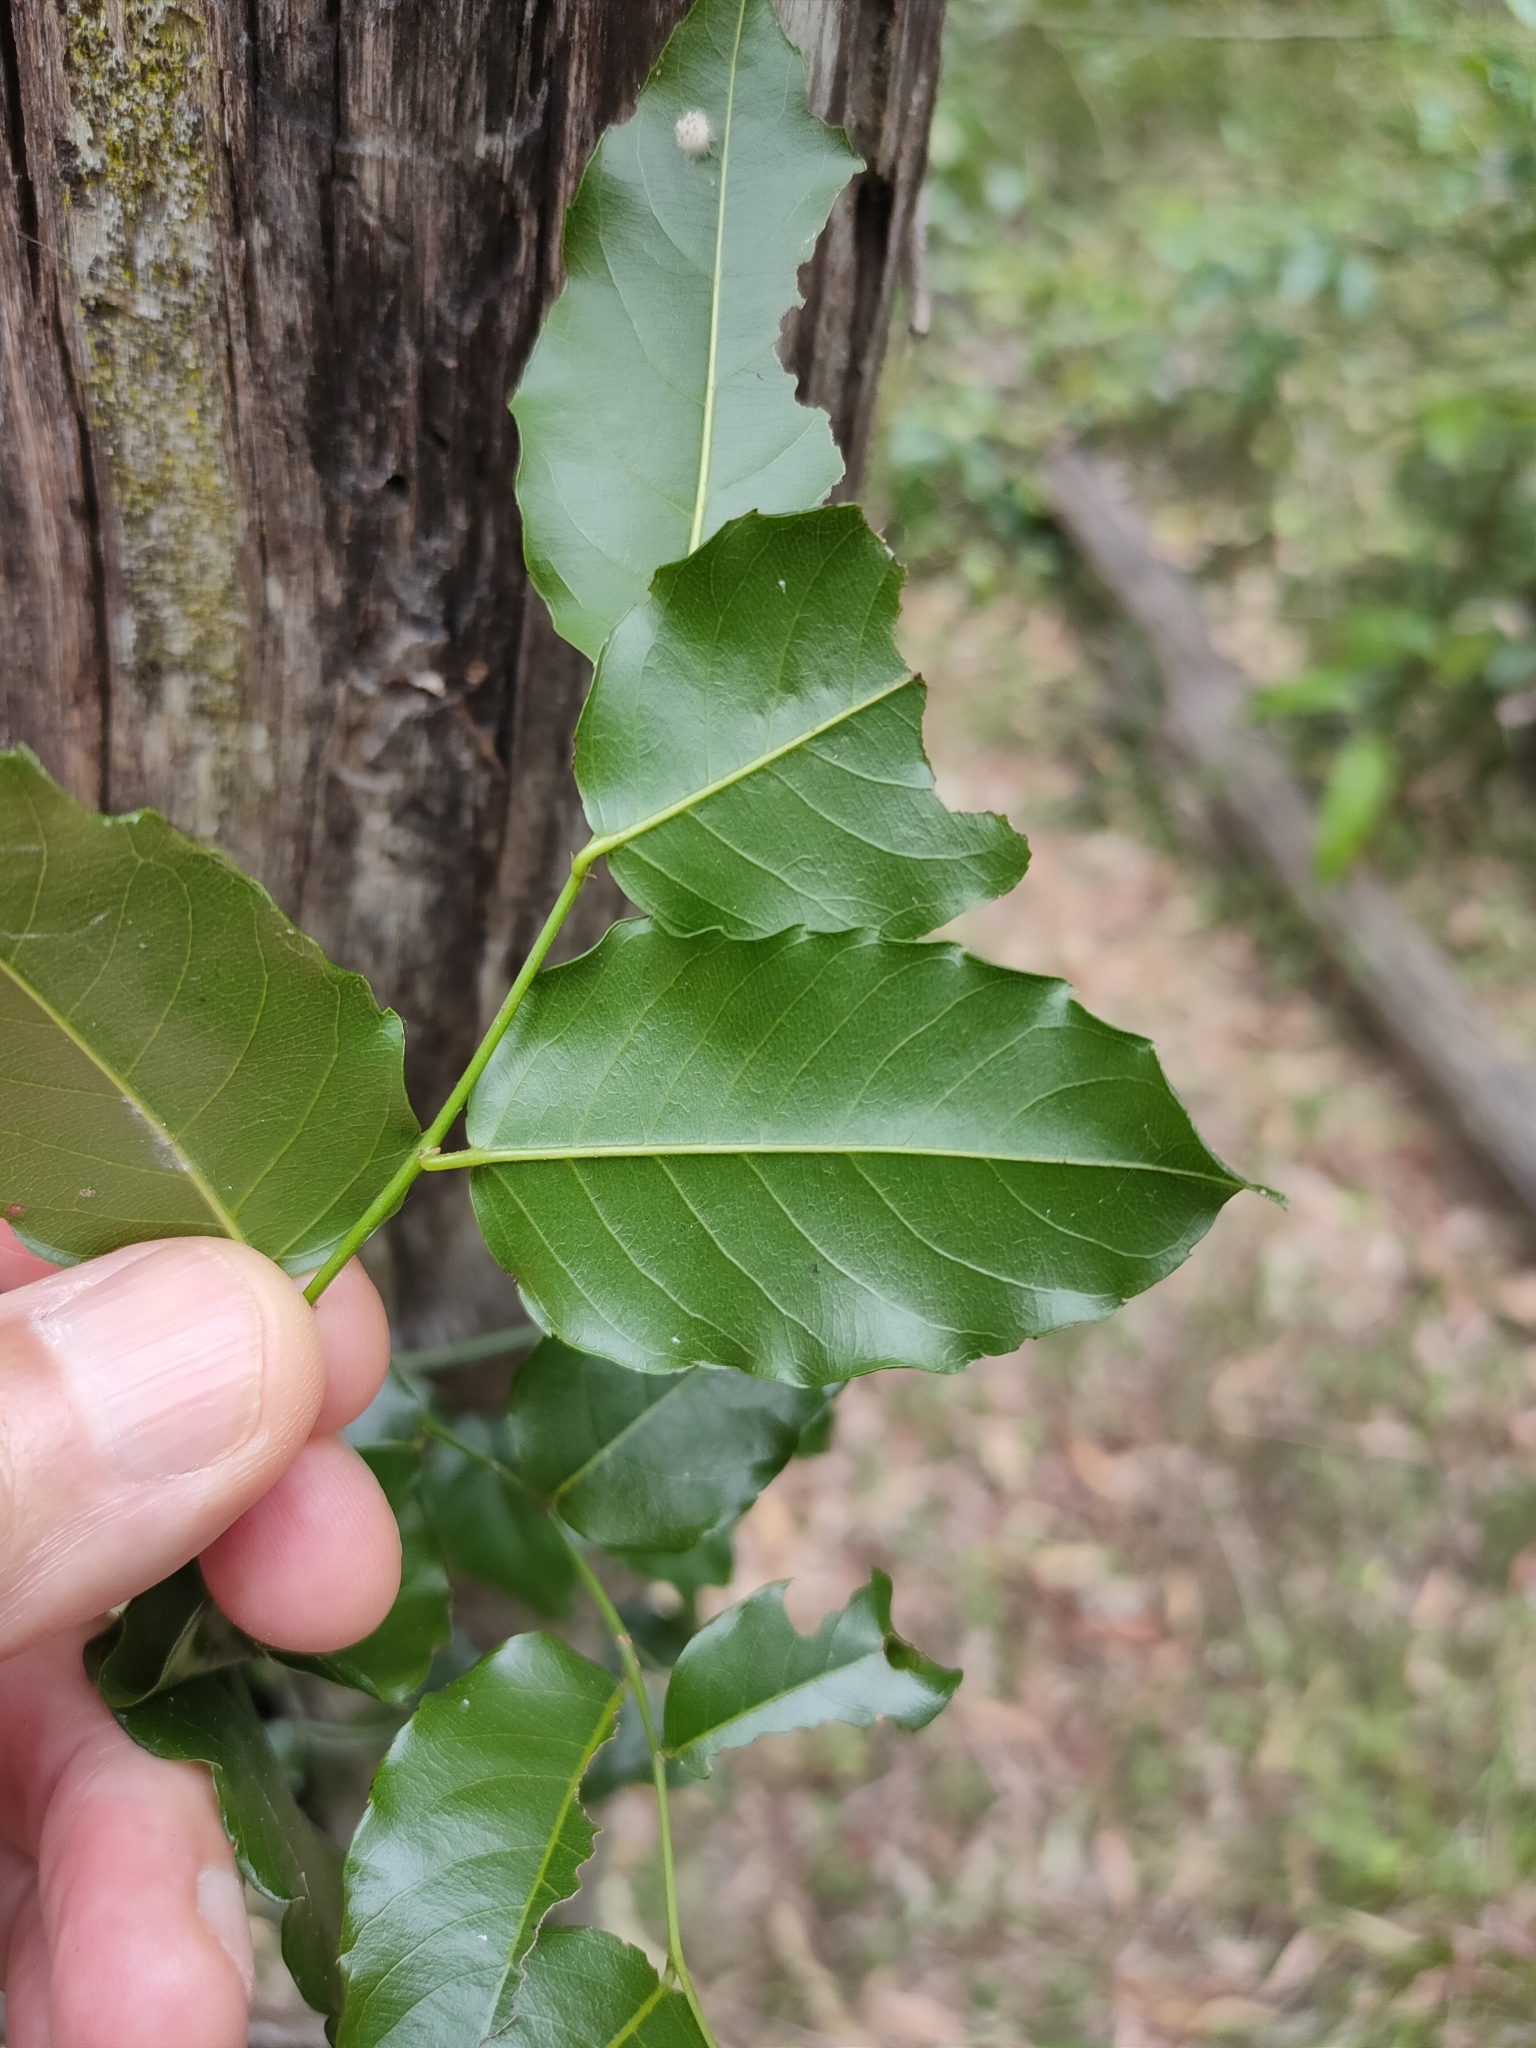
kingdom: Plantae
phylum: Tracheophyta
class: Magnoliopsida
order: Rosales
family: Rhamnaceae
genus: Ventilago
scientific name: Ventilago pubiflora
